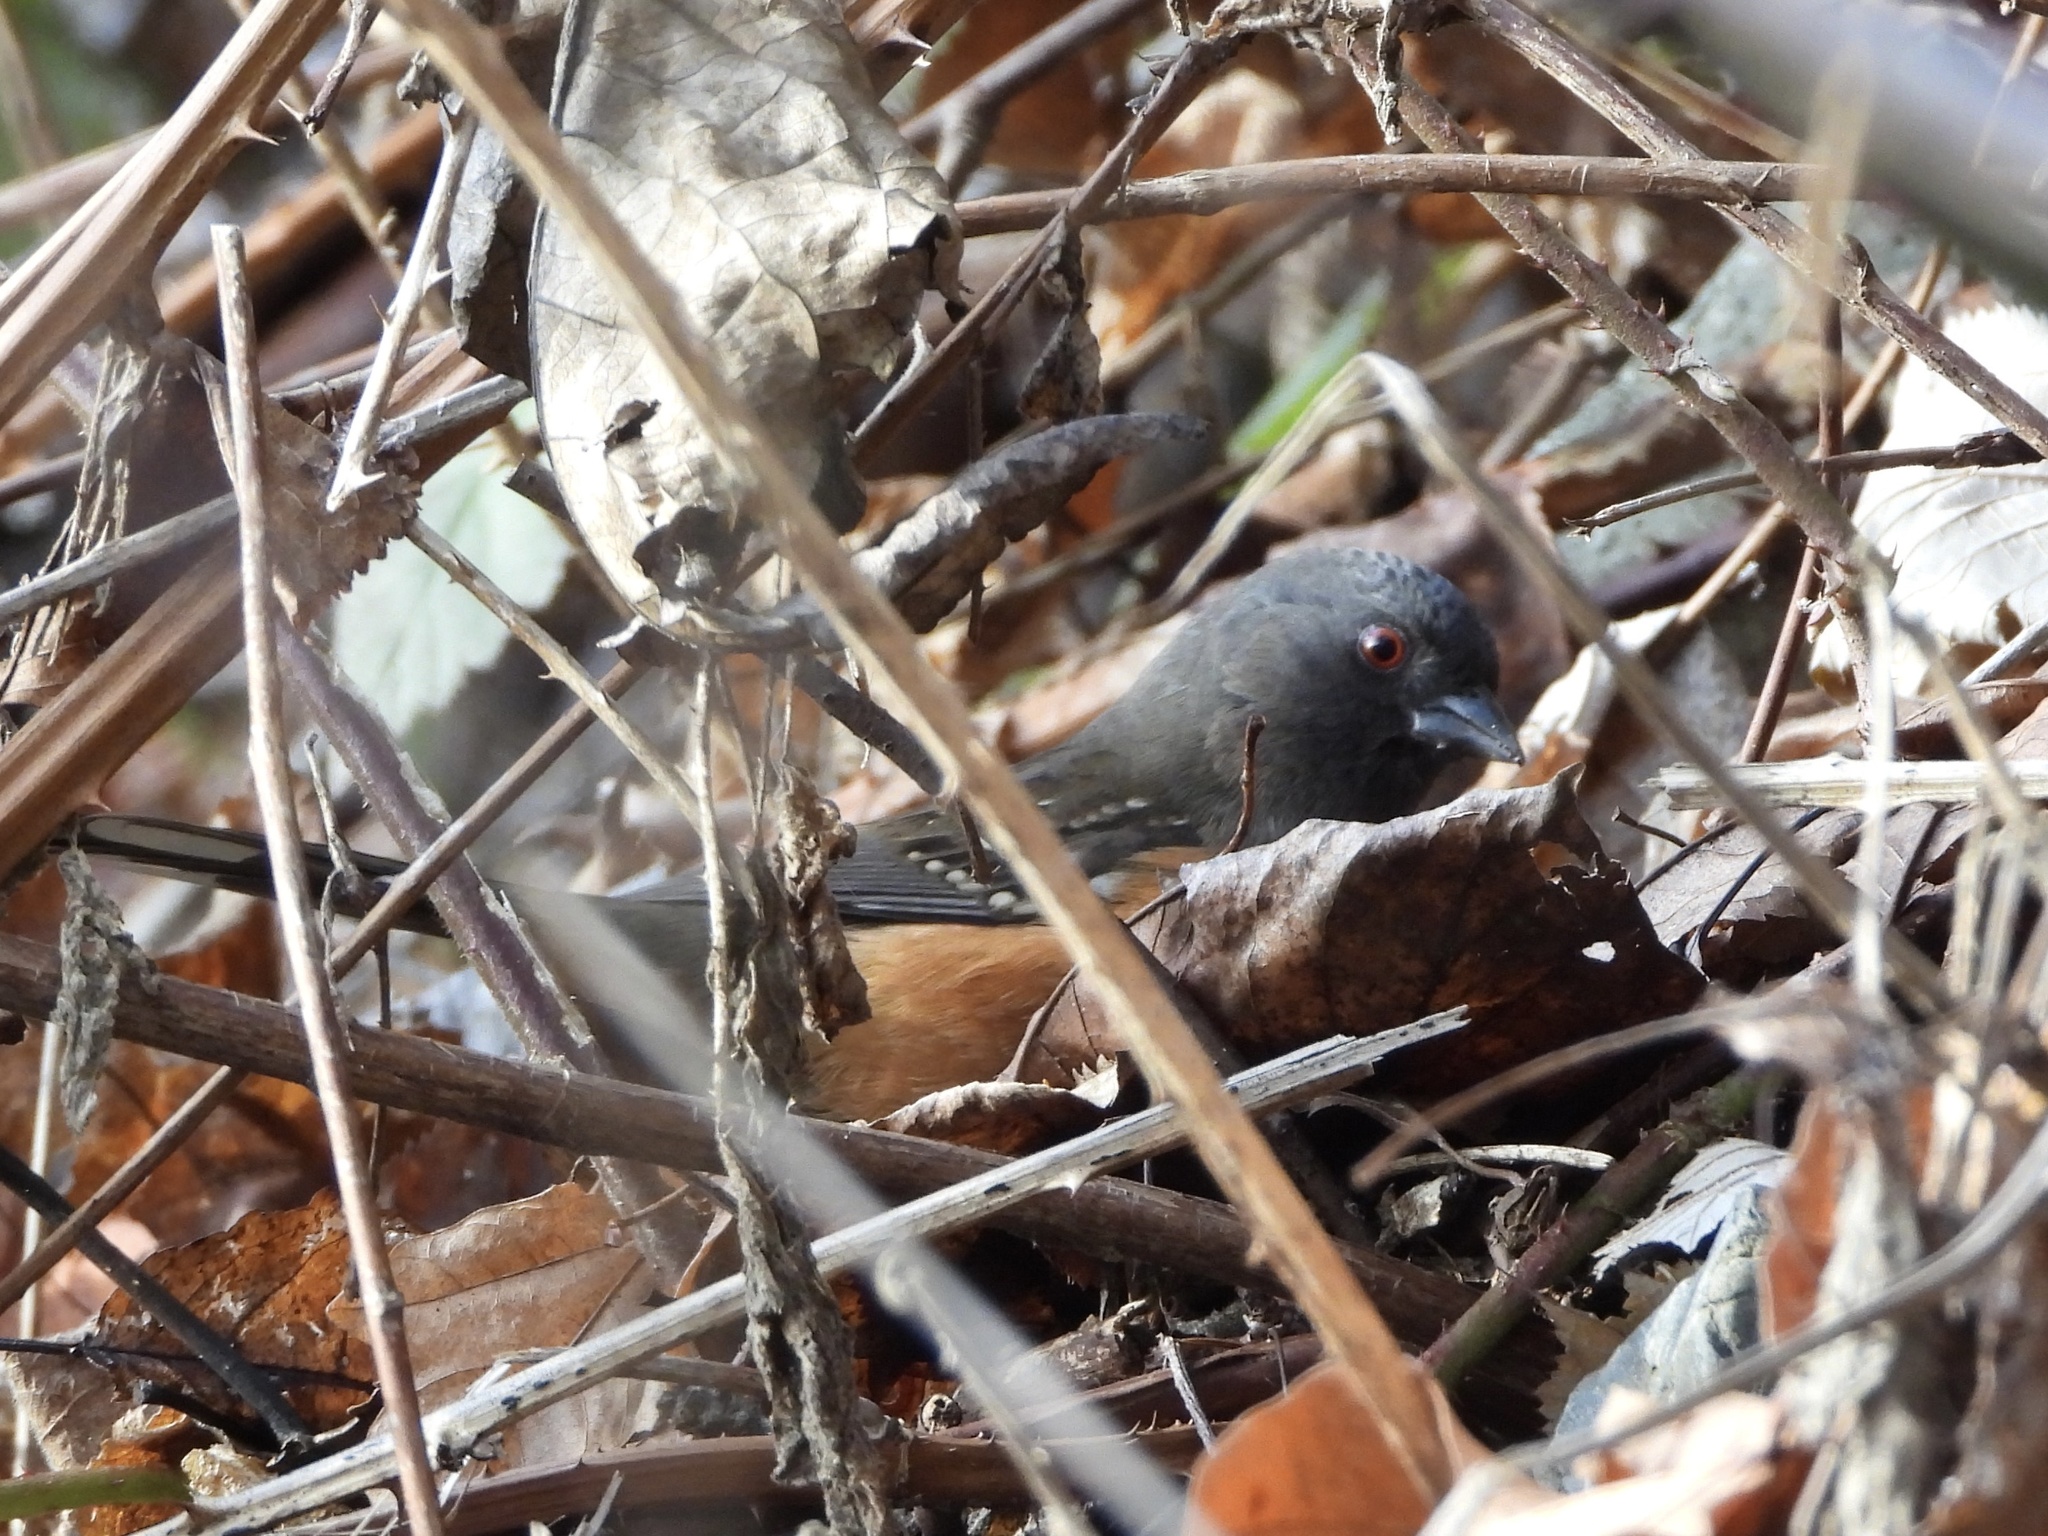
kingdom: Animalia
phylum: Chordata
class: Aves
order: Passeriformes
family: Passerellidae
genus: Pipilo
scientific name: Pipilo maculatus
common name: Spotted towhee
